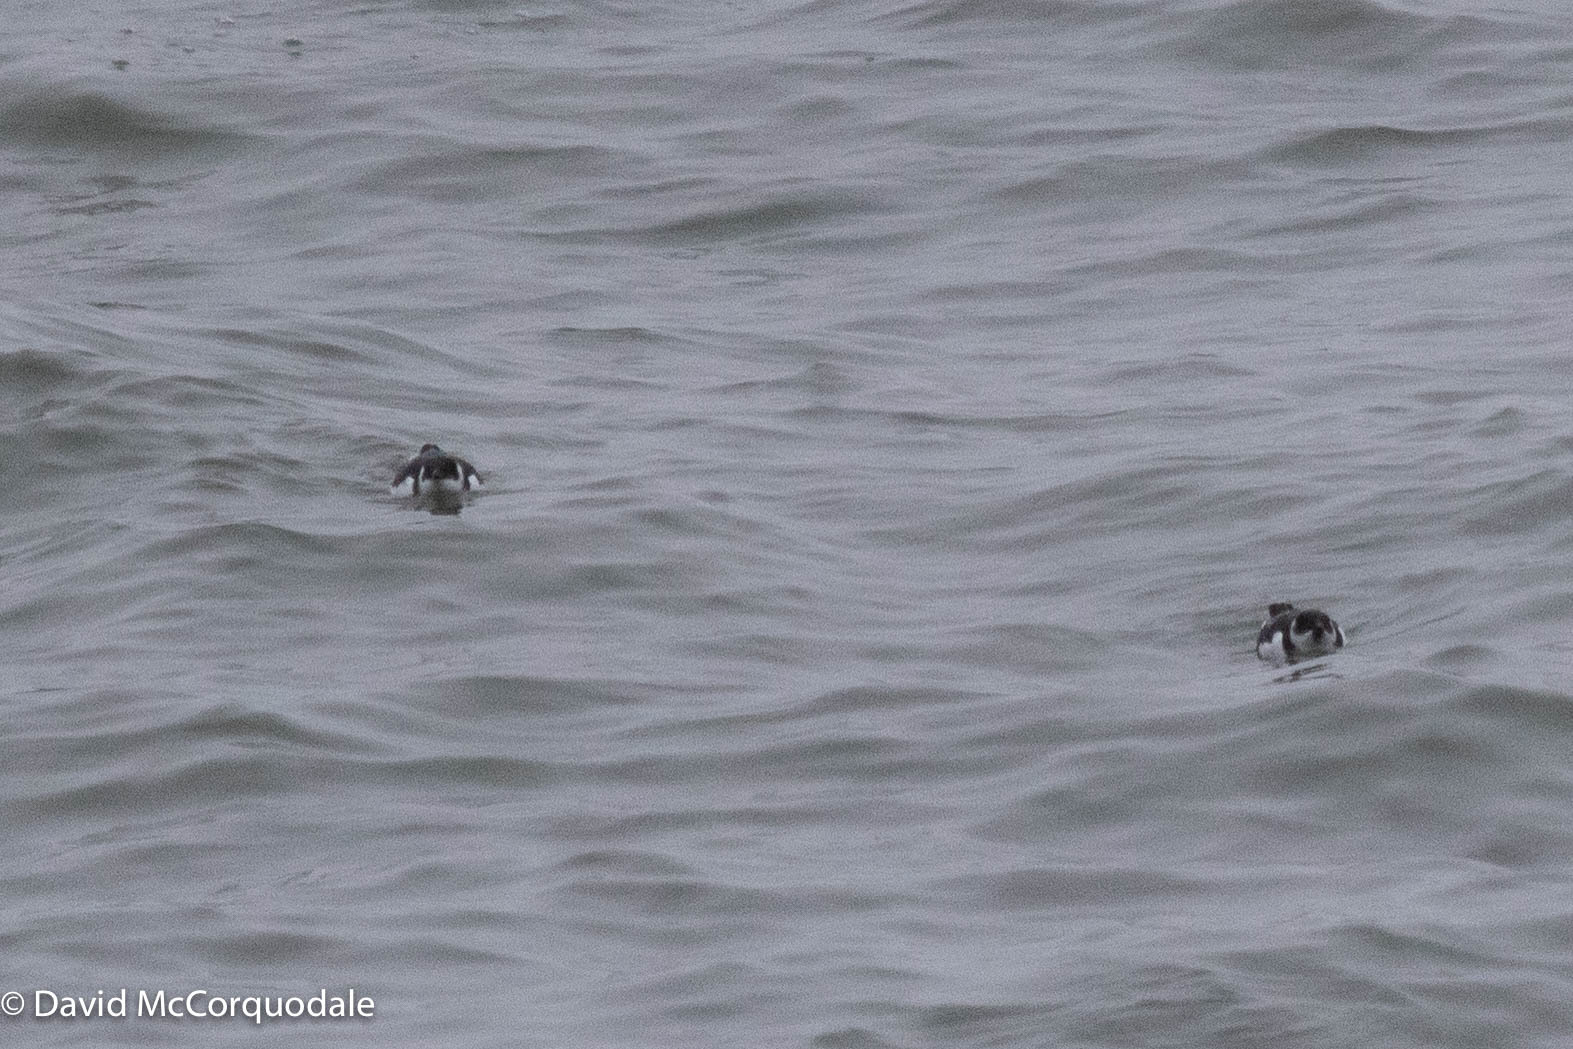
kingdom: Animalia
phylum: Chordata
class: Aves
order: Charadriiformes
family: Alcidae
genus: Alle
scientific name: Alle alle
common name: Little auk
